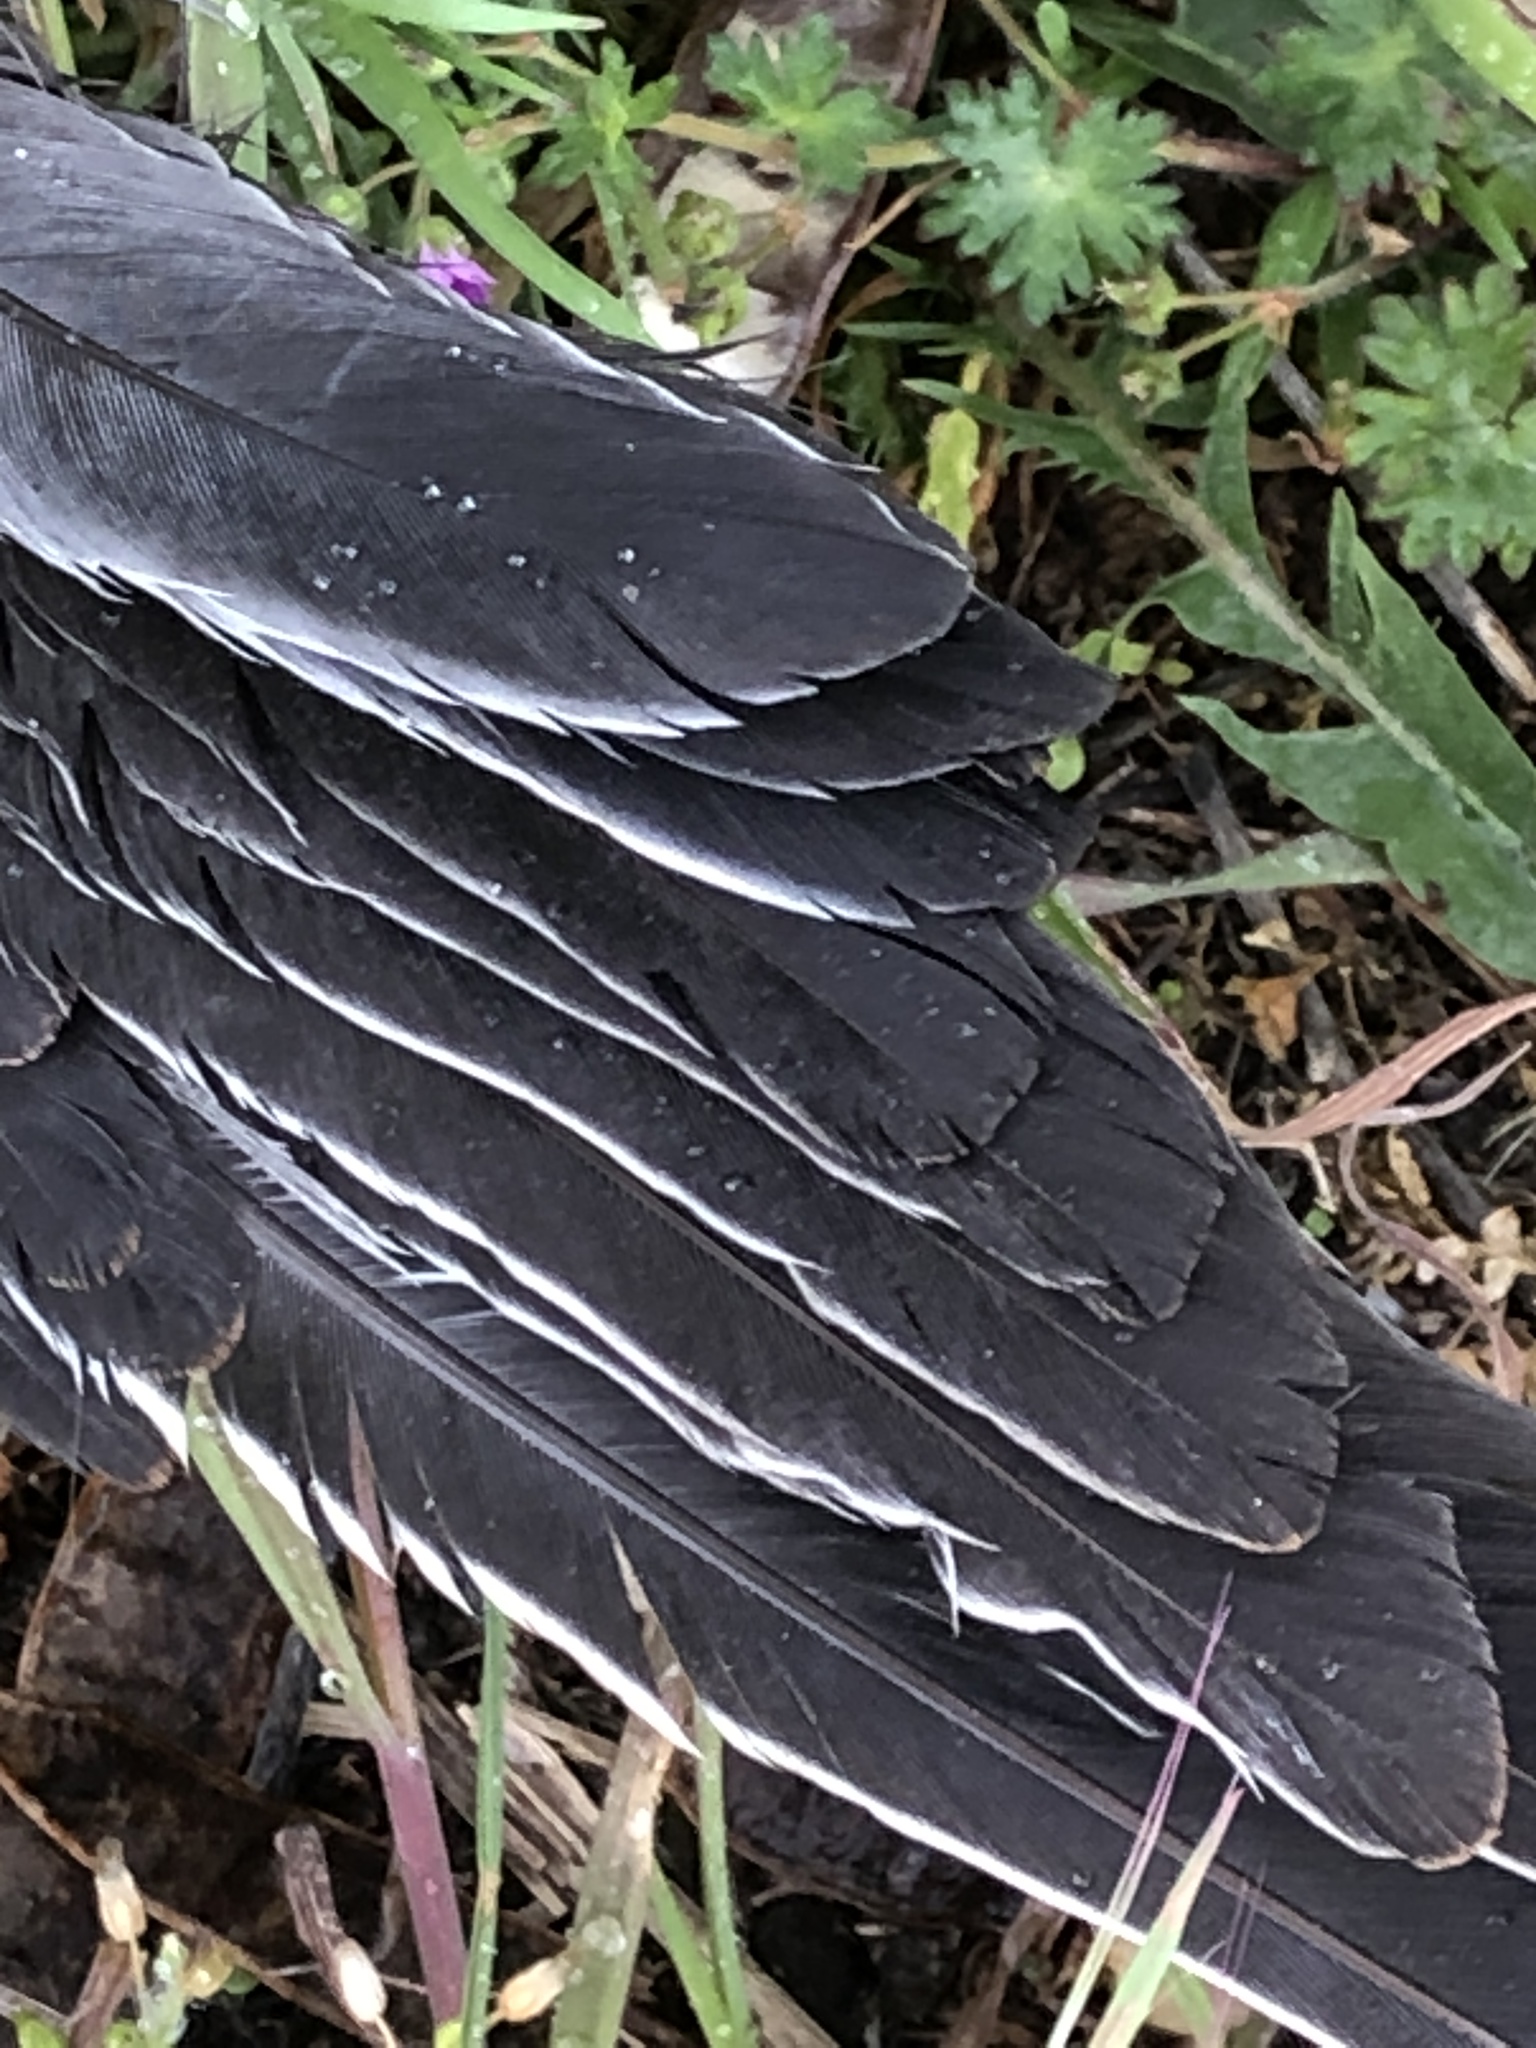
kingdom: Animalia
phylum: Chordata
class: Aves
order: Columbiformes
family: Columbidae
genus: Columba
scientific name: Columba palumbus
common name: Common wood pigeon
